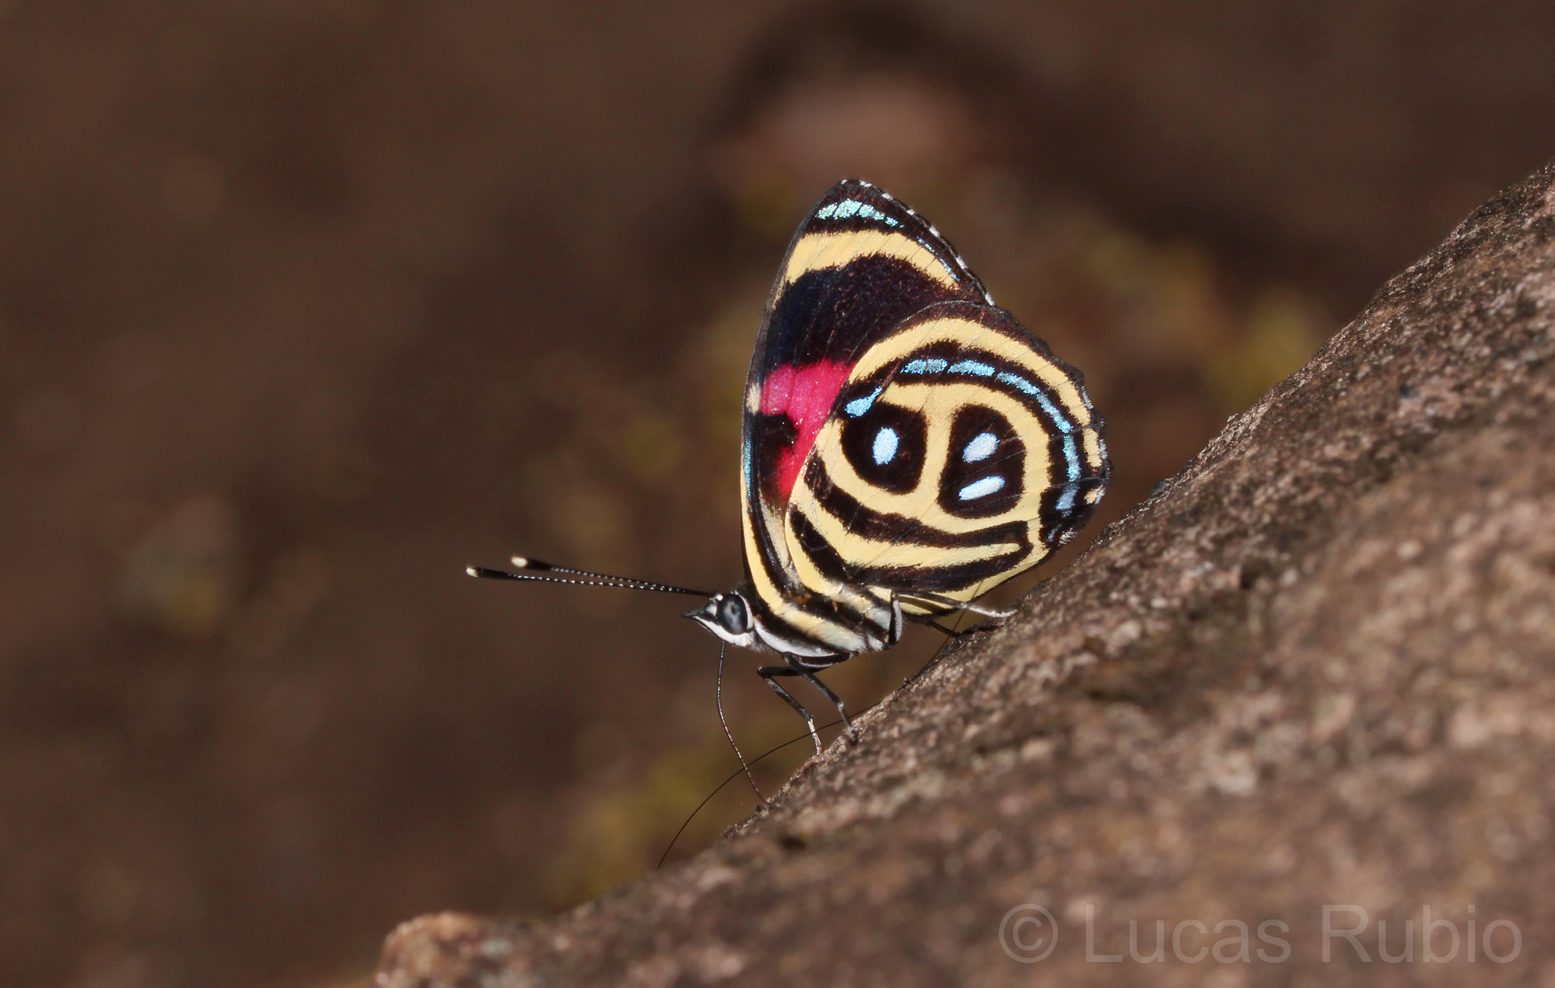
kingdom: Animalia
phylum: Arthropoda
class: Insecta
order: Lepidoptera
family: Nymphalidae
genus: Catagramma
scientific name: Catagramma pyracmon
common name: Google-eyed eighty-eight
